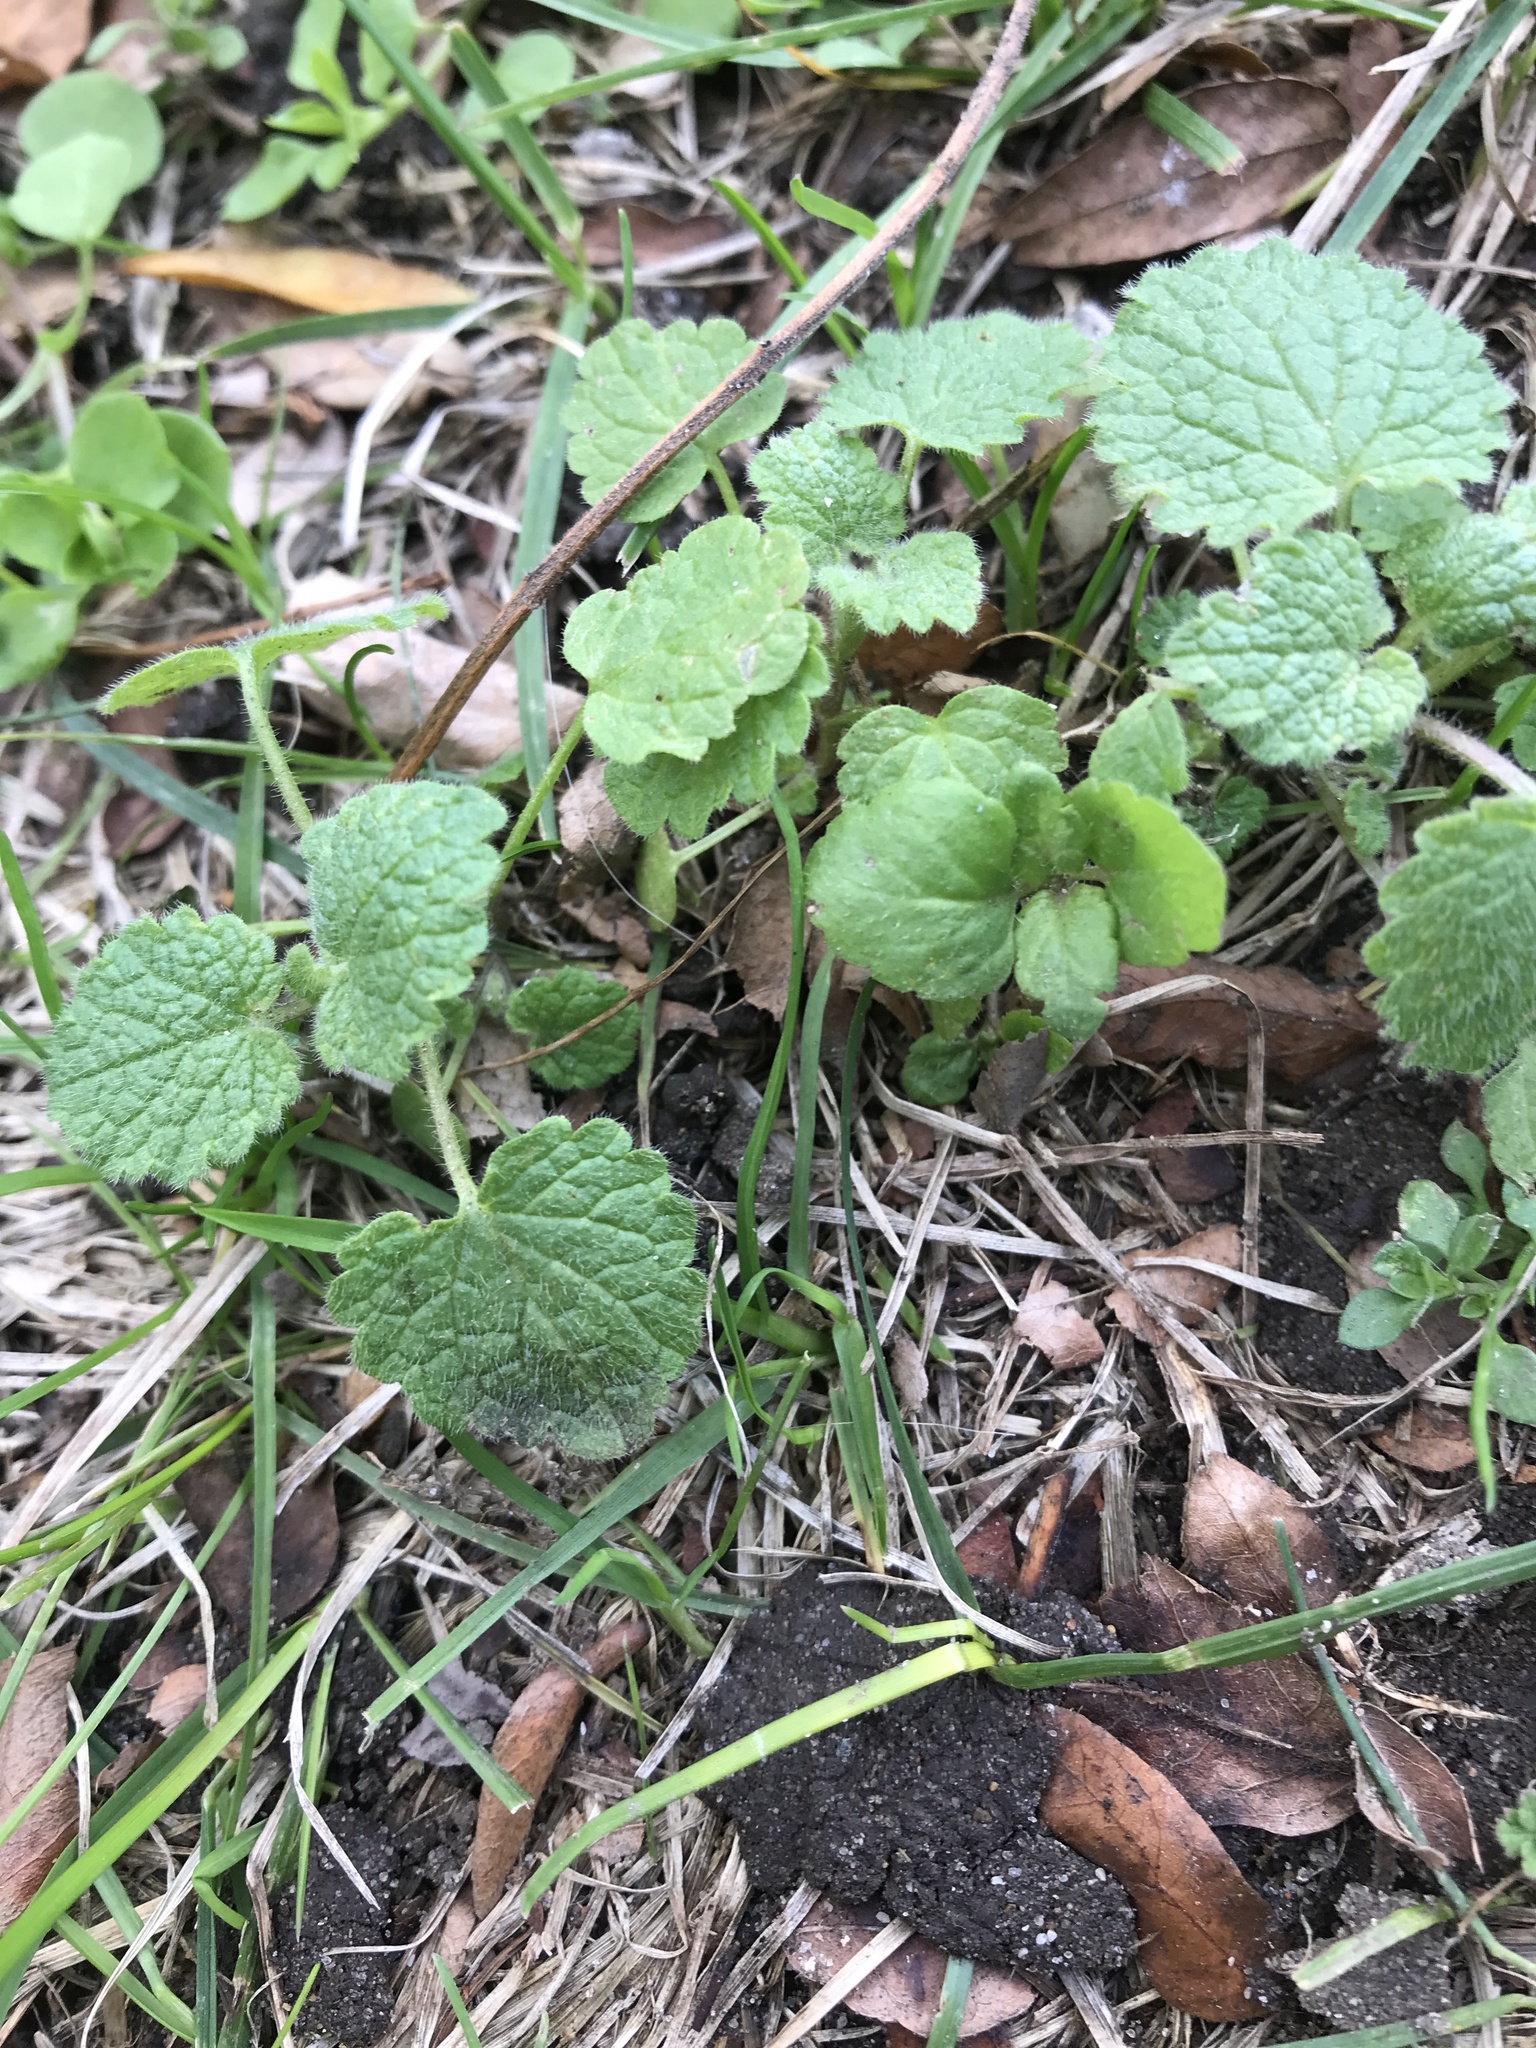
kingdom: Plantae
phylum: Tracheophyta
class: Magnoliopsida
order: Lamiales
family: Lamiaceae
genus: Lamium
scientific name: Lamium purpureum
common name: Red dead-nettle
